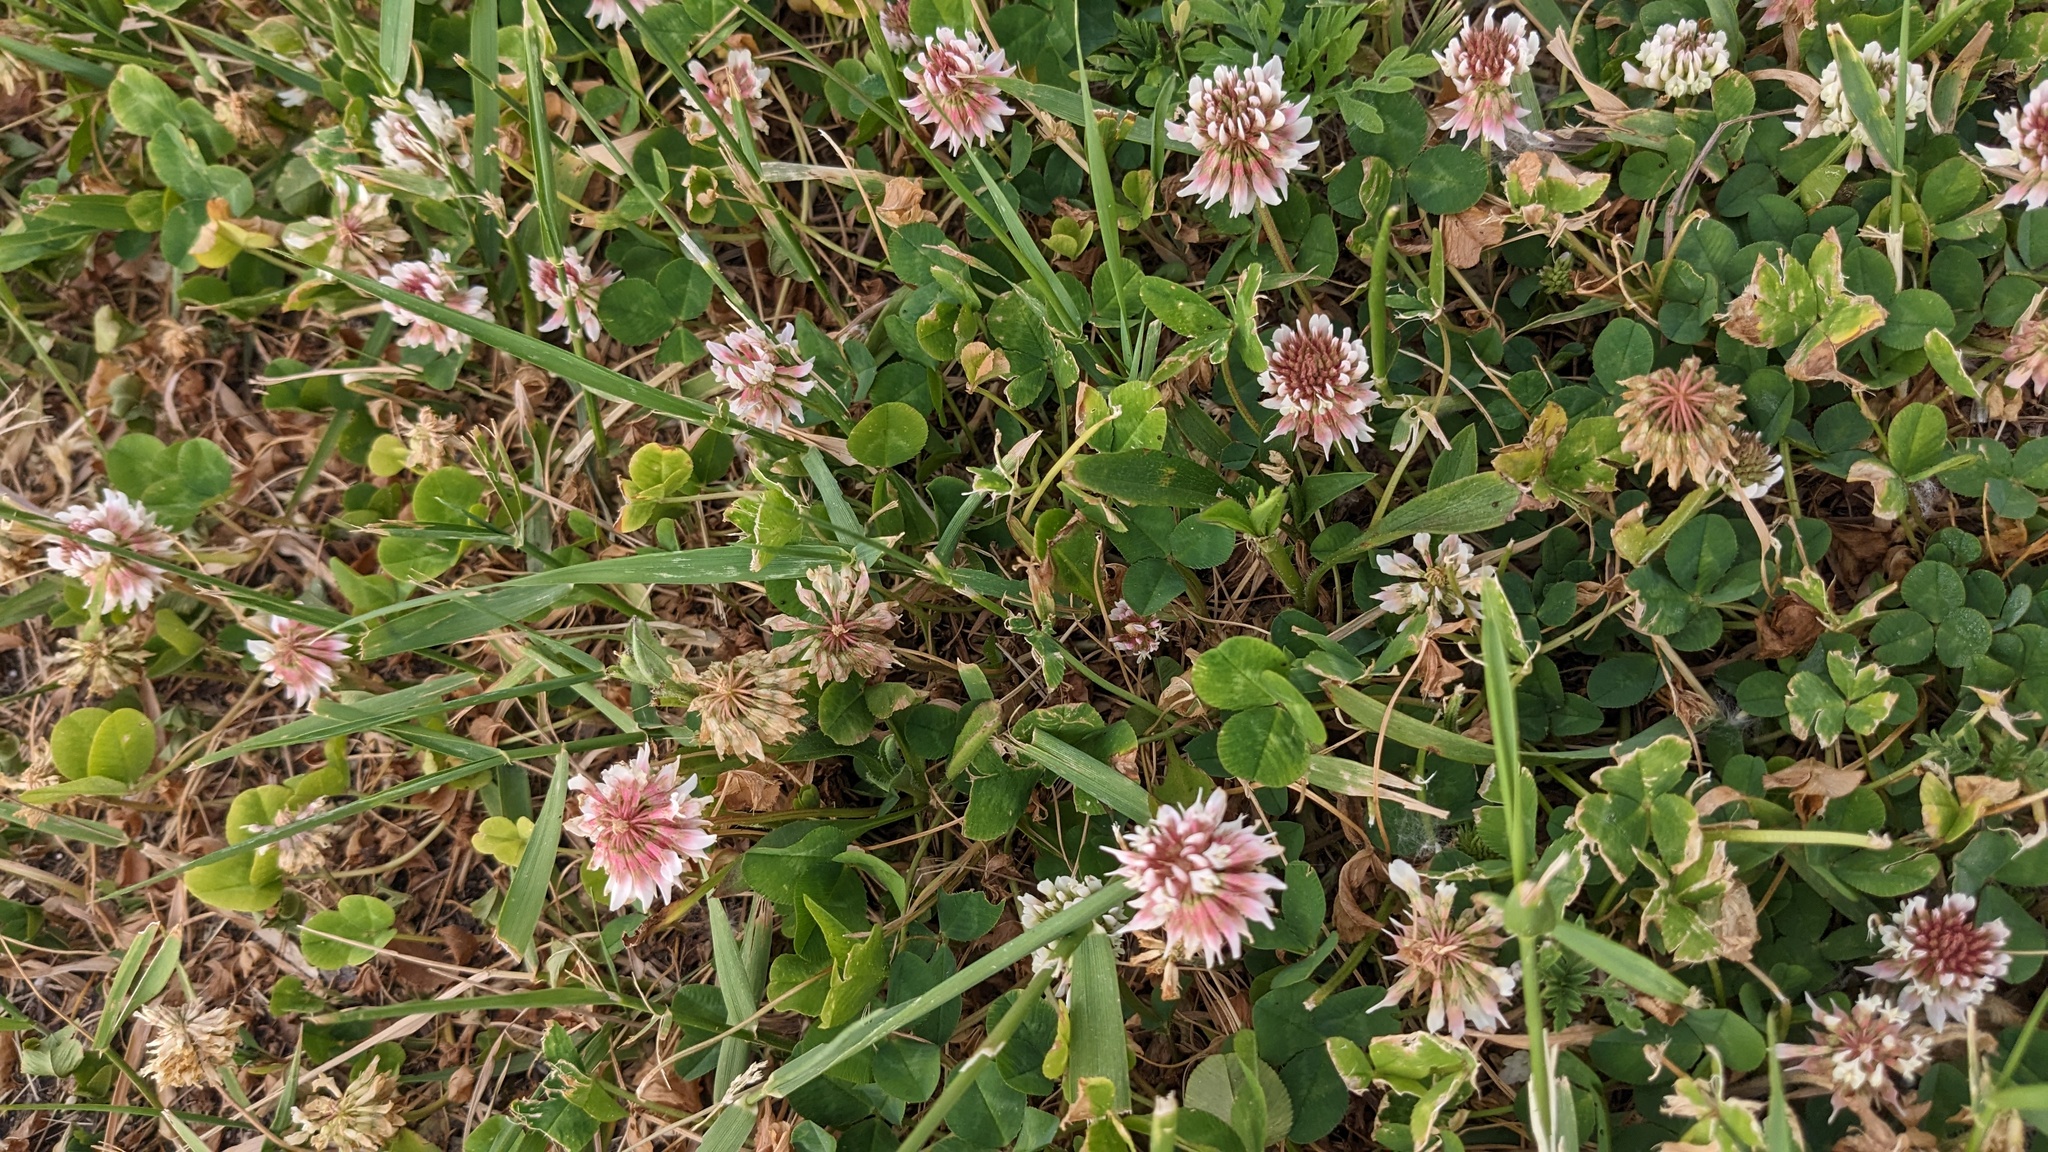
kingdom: Plantae
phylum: Tracheophyta
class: Magnoliopsida
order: Fabales
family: Fabaceae
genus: Trifolium
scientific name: Trifolium repens
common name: White clover
